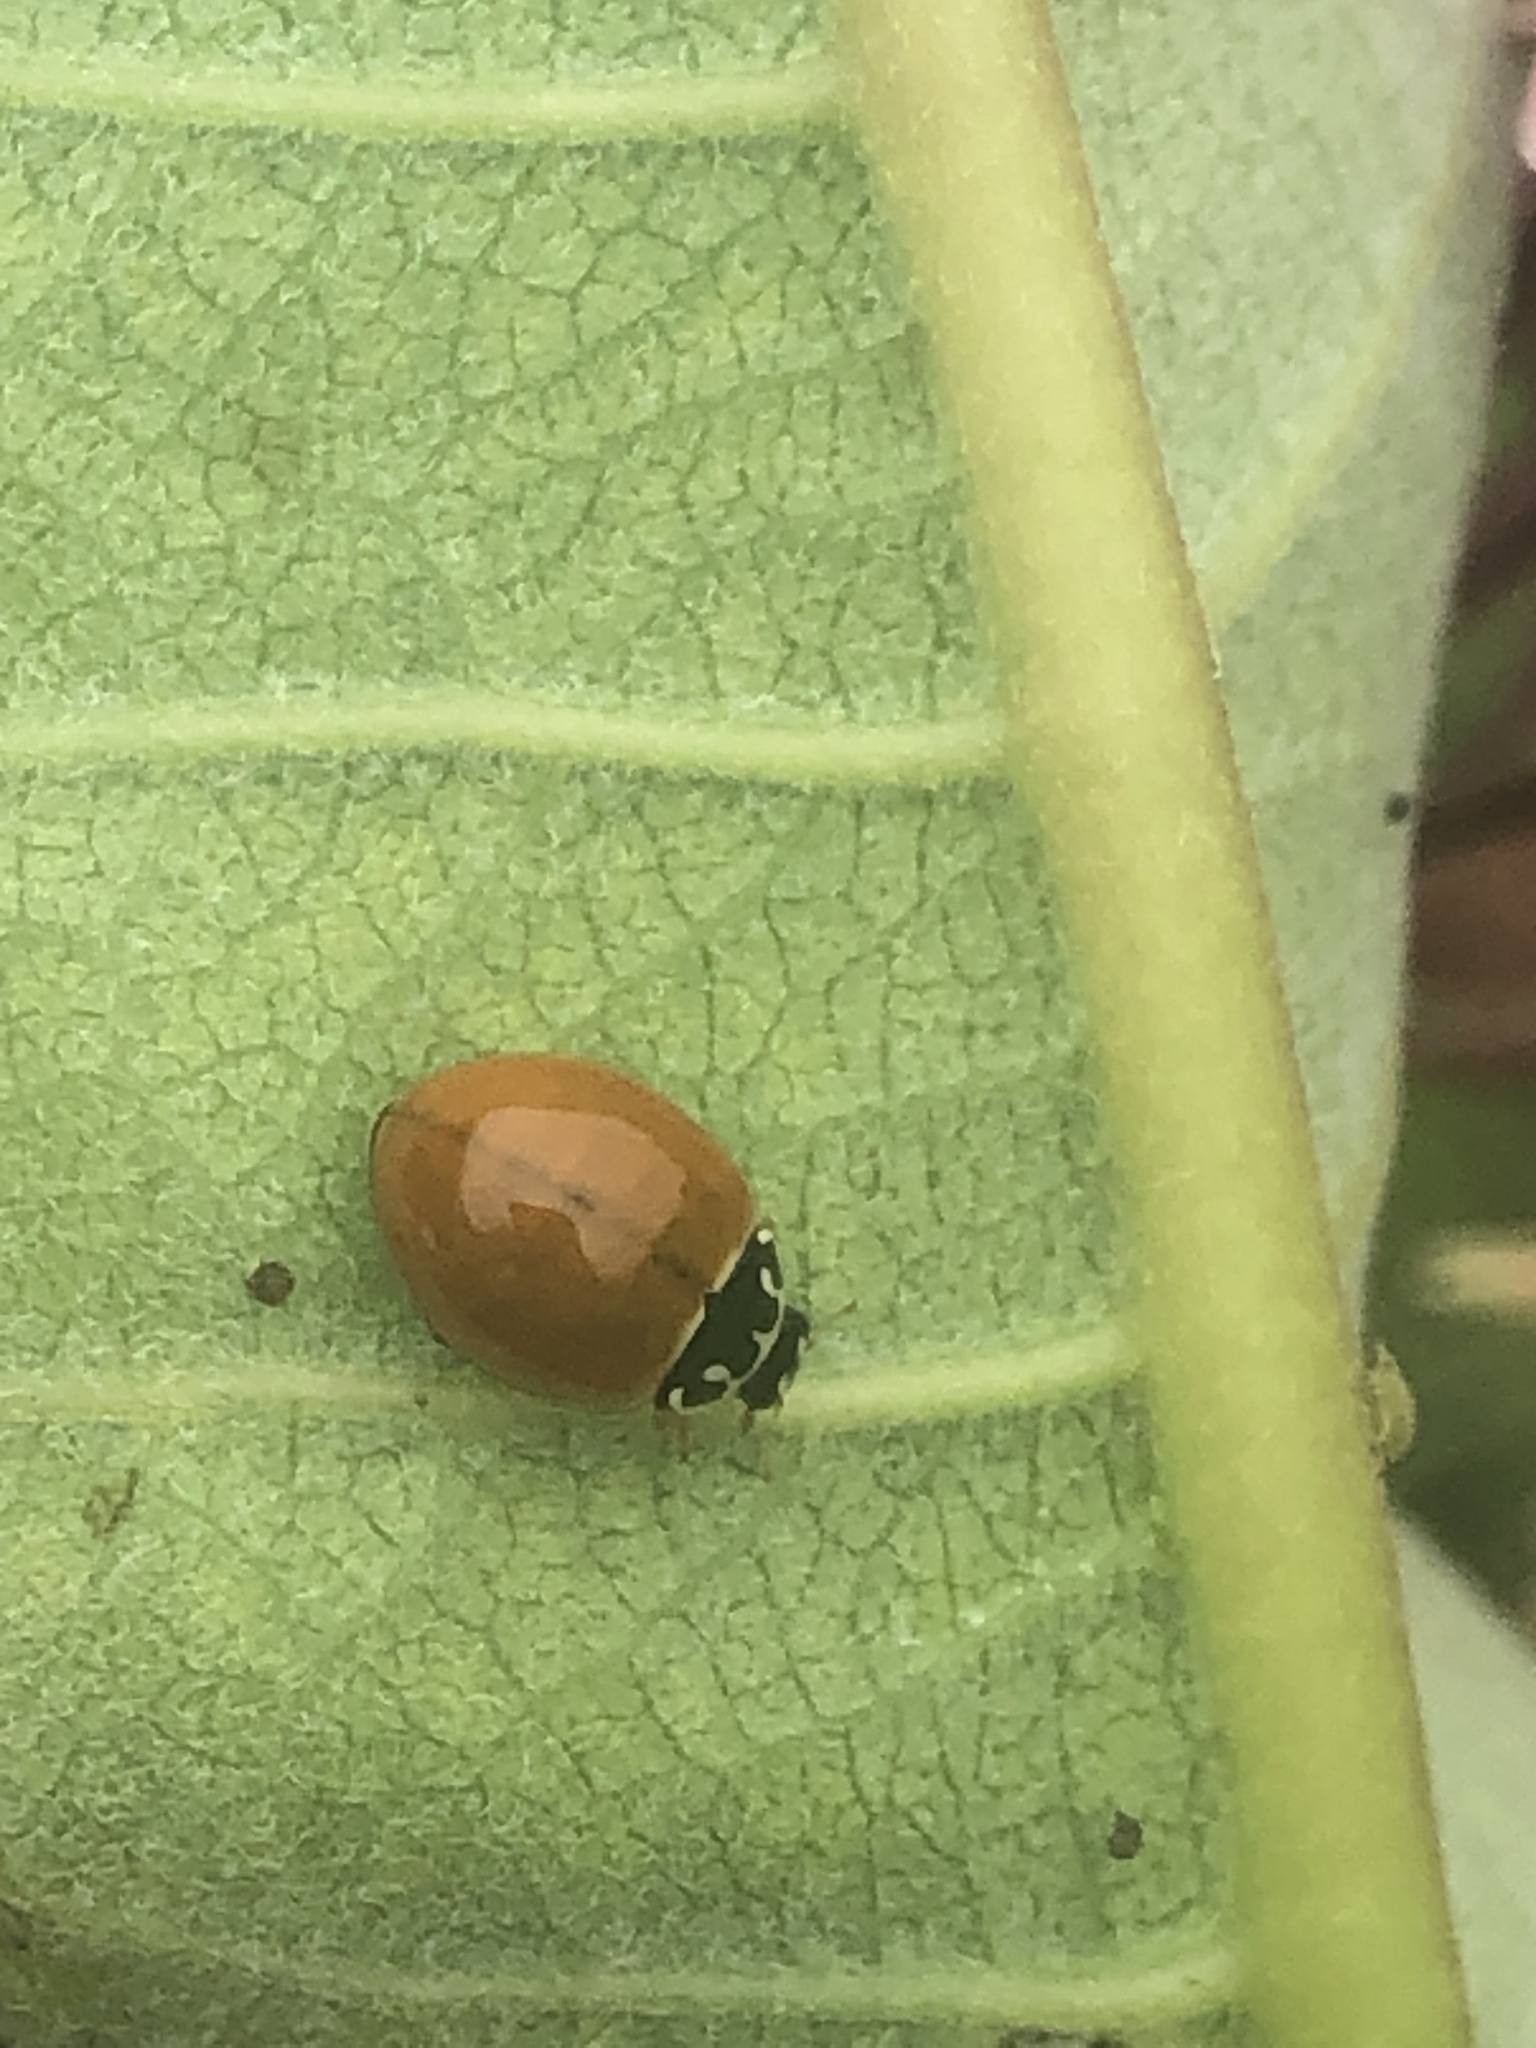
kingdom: Animalia
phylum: Arthropoda
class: Insecta
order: Coleoptera
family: Coccinellidae
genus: Cycloneda
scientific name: Cycloneda munda
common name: Polished lady beetle
